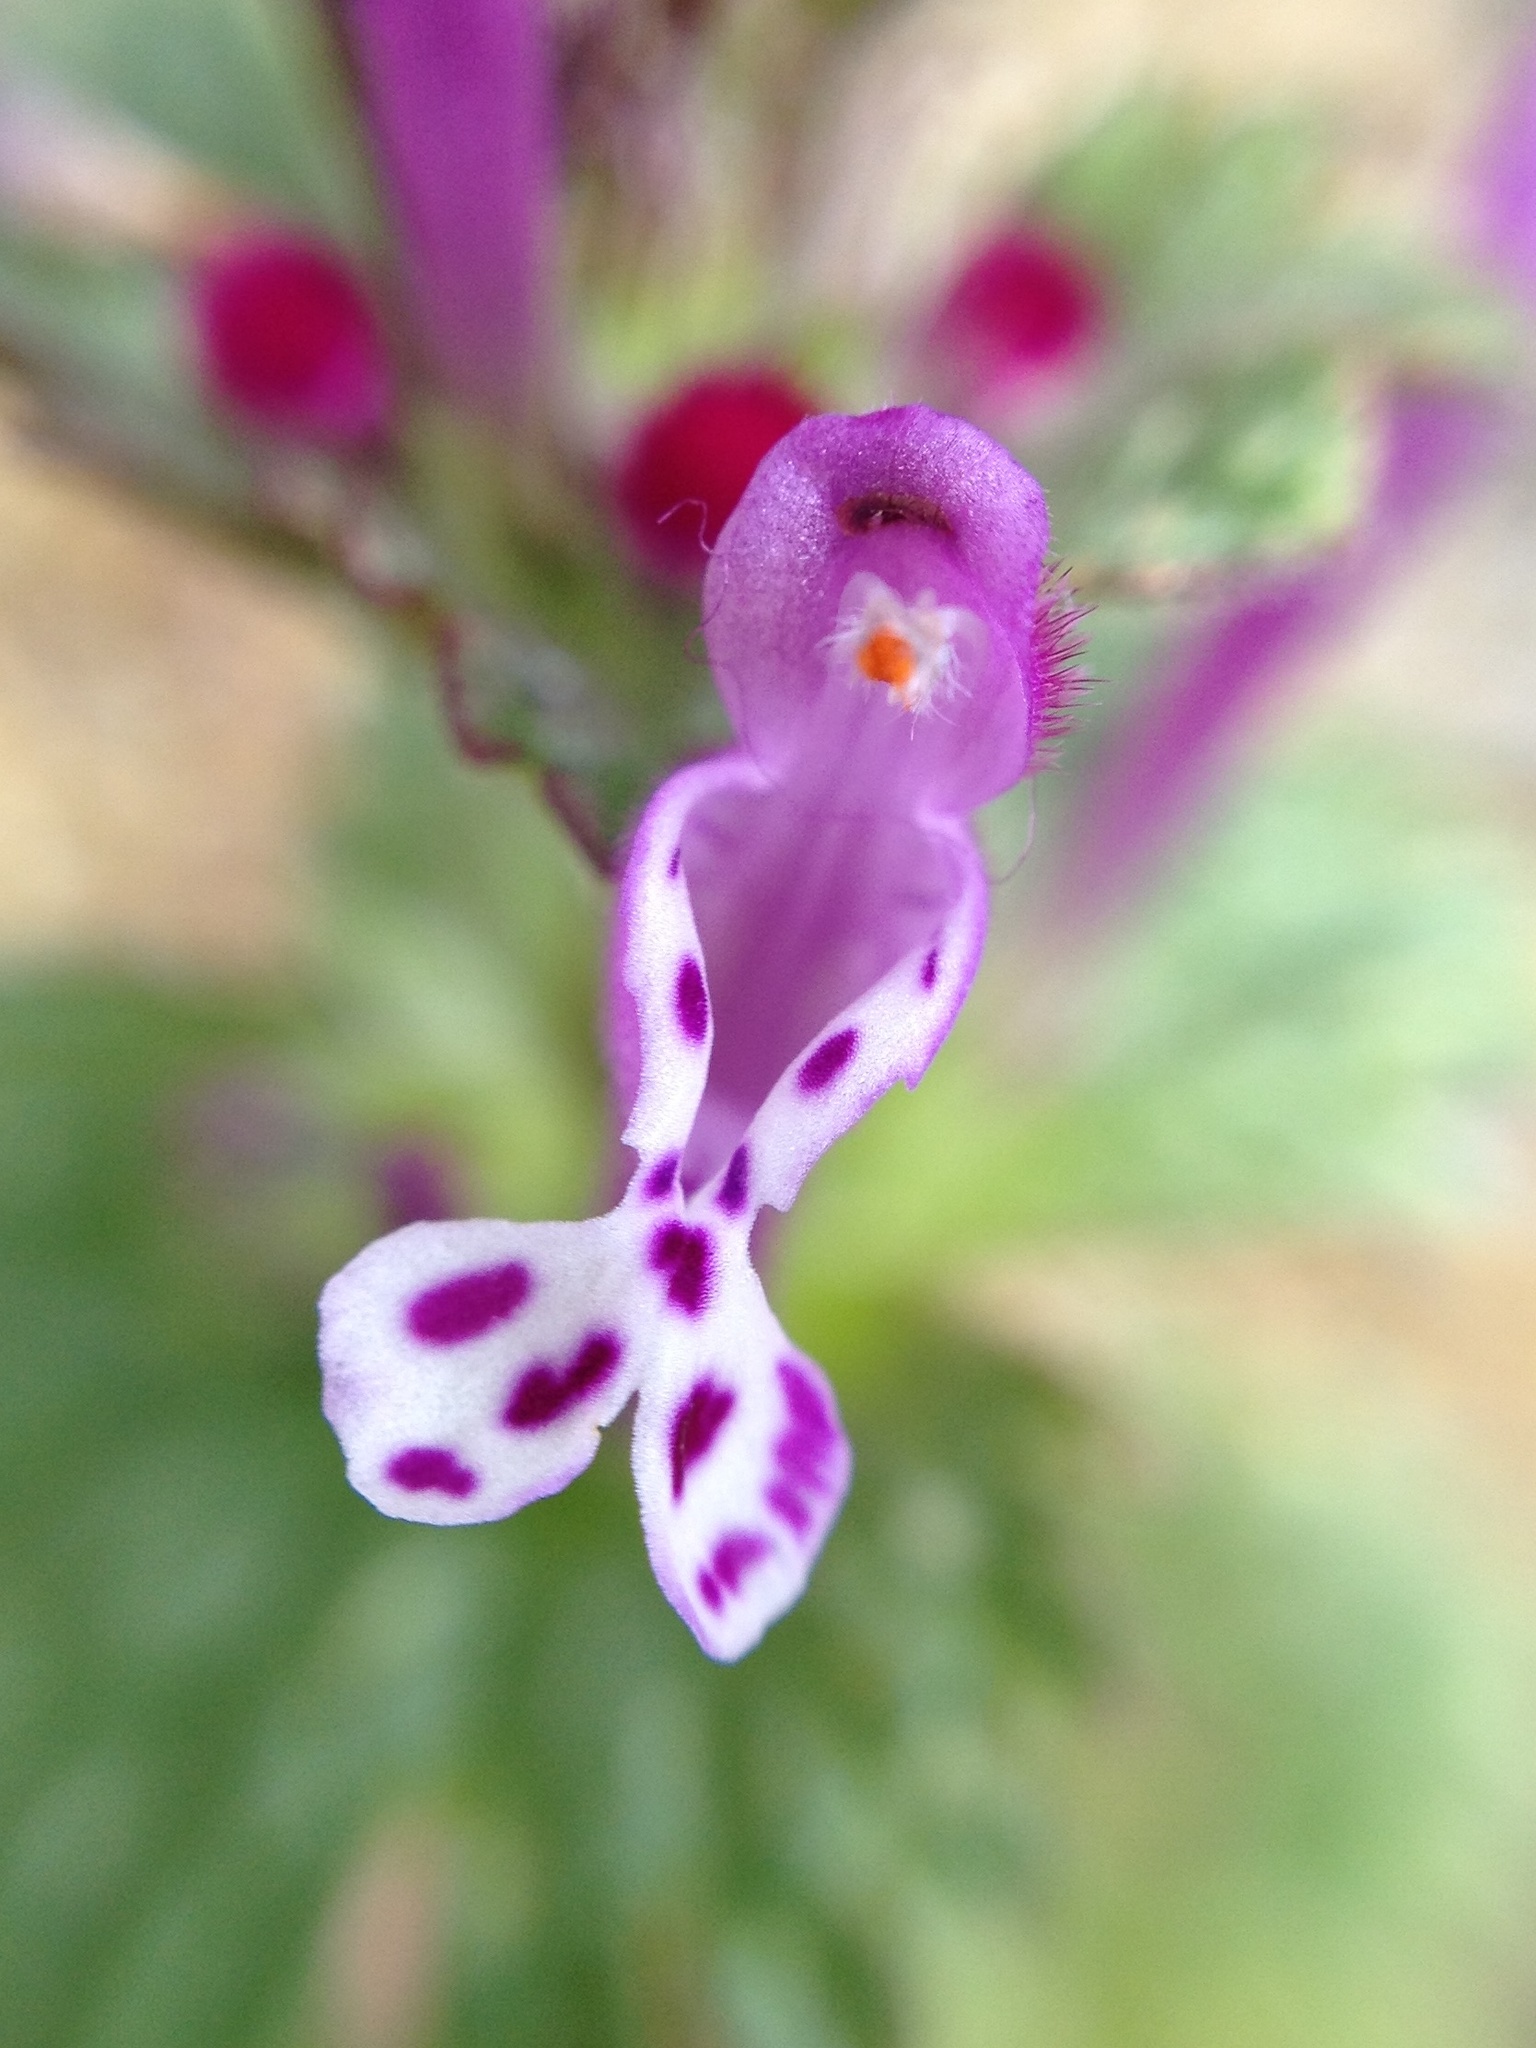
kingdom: Plantae
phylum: Tracheophyta
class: Magnoliopsida
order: Lamiales
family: Lamiaceae
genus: Lamium
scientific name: Lamium amplexicaule
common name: Henbit dead-nettle
